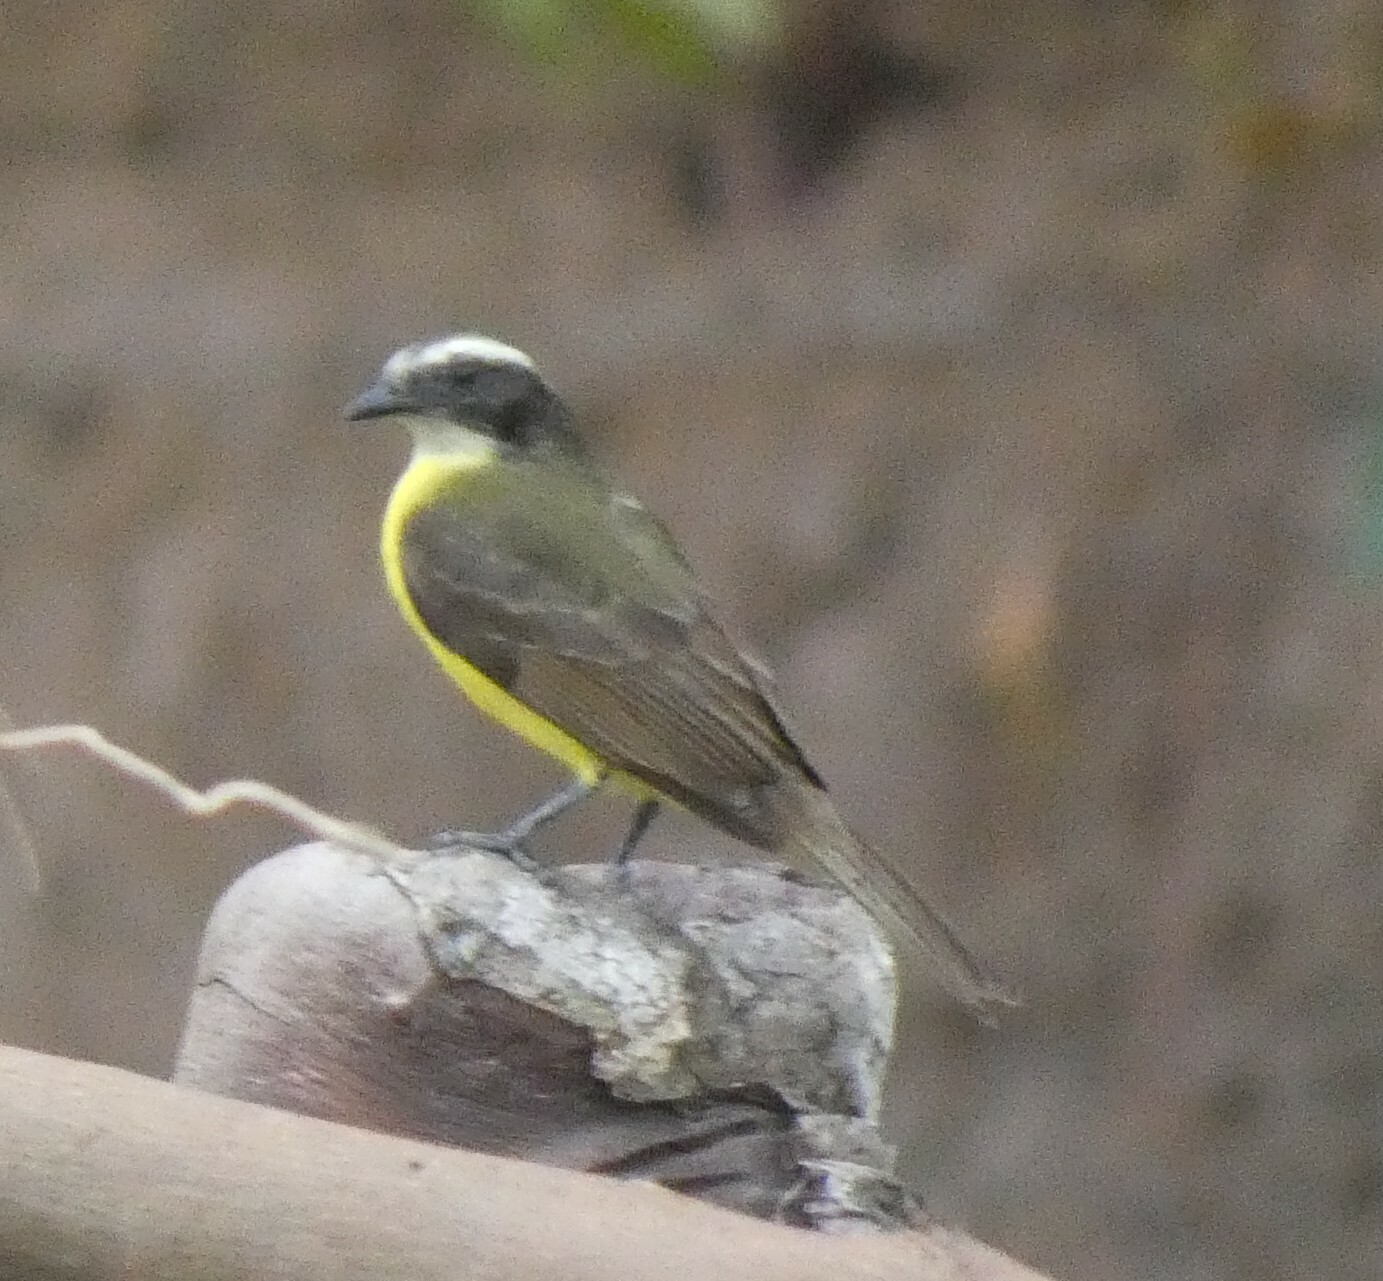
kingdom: Animalia
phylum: Chordata
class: Aves
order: Passeriformes
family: Tyrannidae
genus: Myiozetetes
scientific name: Myiozetetes similis
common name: Social flycatcher
